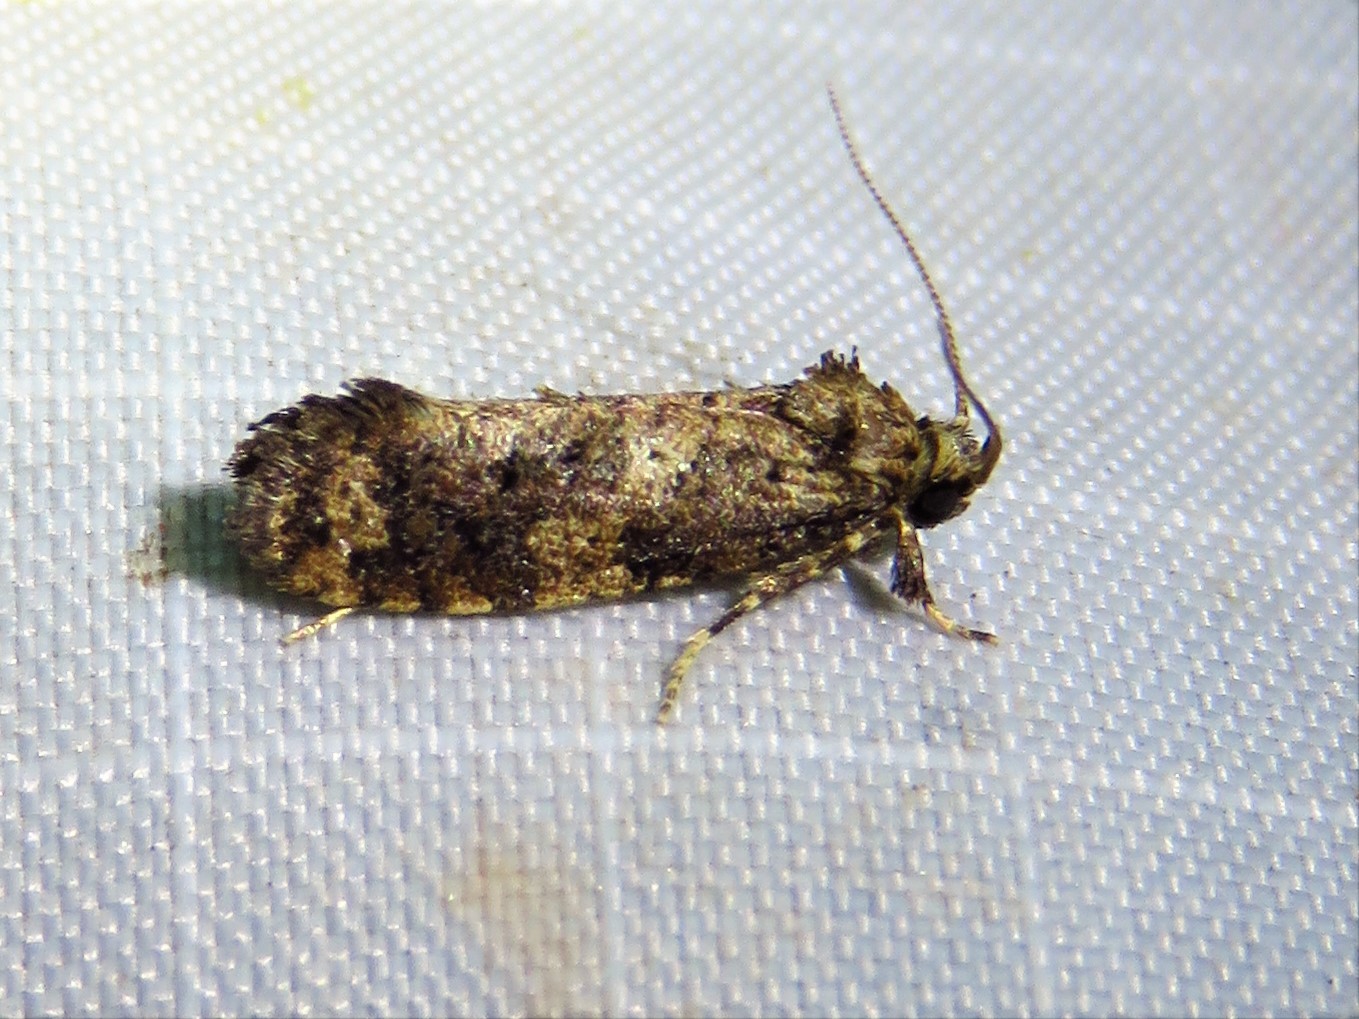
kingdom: Animalia
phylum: Arthropoda
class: Insecta
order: Lepidoptera
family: Tineidae
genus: Acrolophus
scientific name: Acrolophus cressoni
